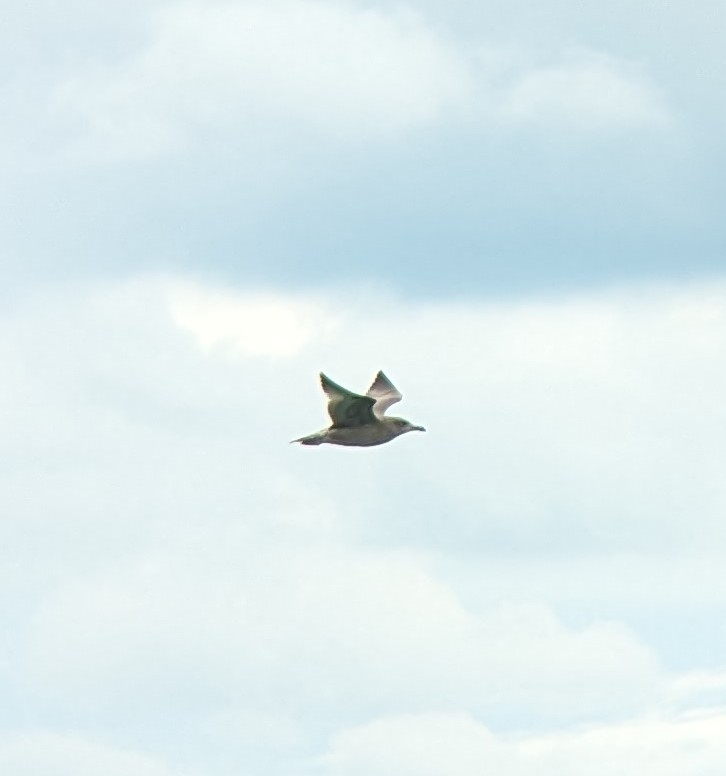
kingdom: Animalia
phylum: Chordata
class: Aves
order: Charadriiformes
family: Laridae
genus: Larus
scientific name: Larus argentatus
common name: Herring gull
